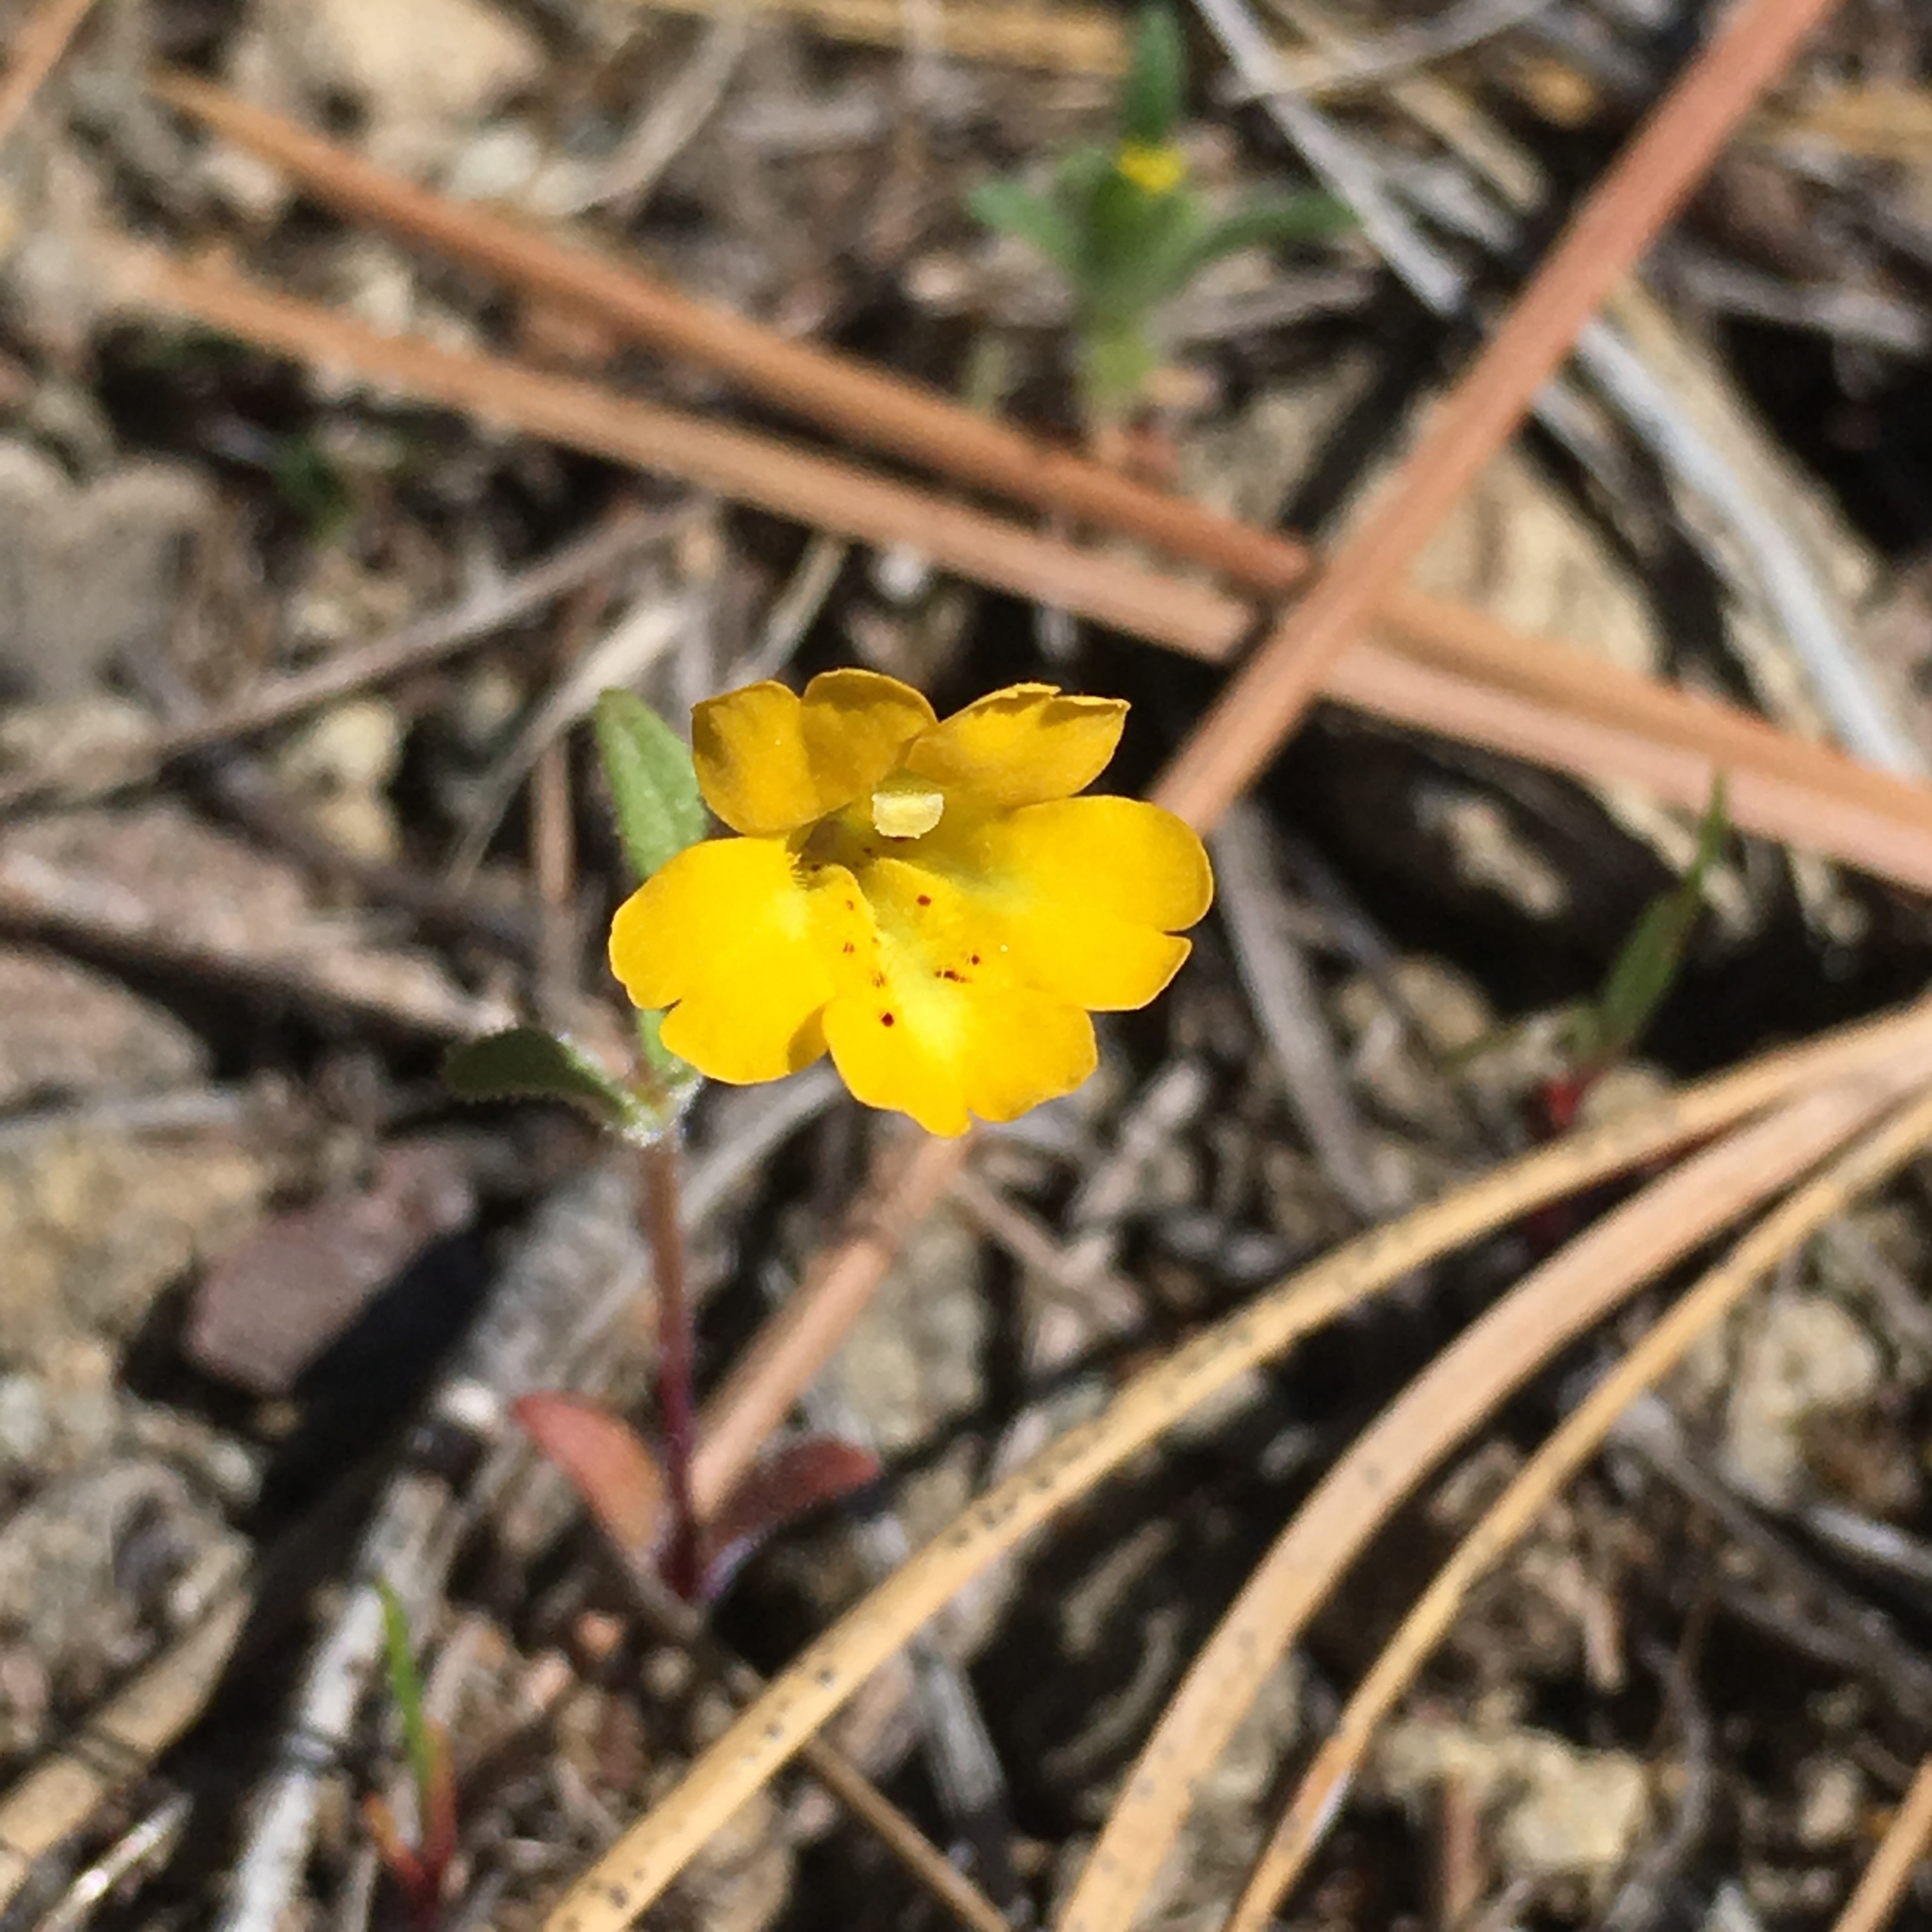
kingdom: Plantae
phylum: Tracheophyta
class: Magnoliopsida
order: Lamiales
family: Phrymaceae
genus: Erythranthe
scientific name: Erythranthe bicolor
